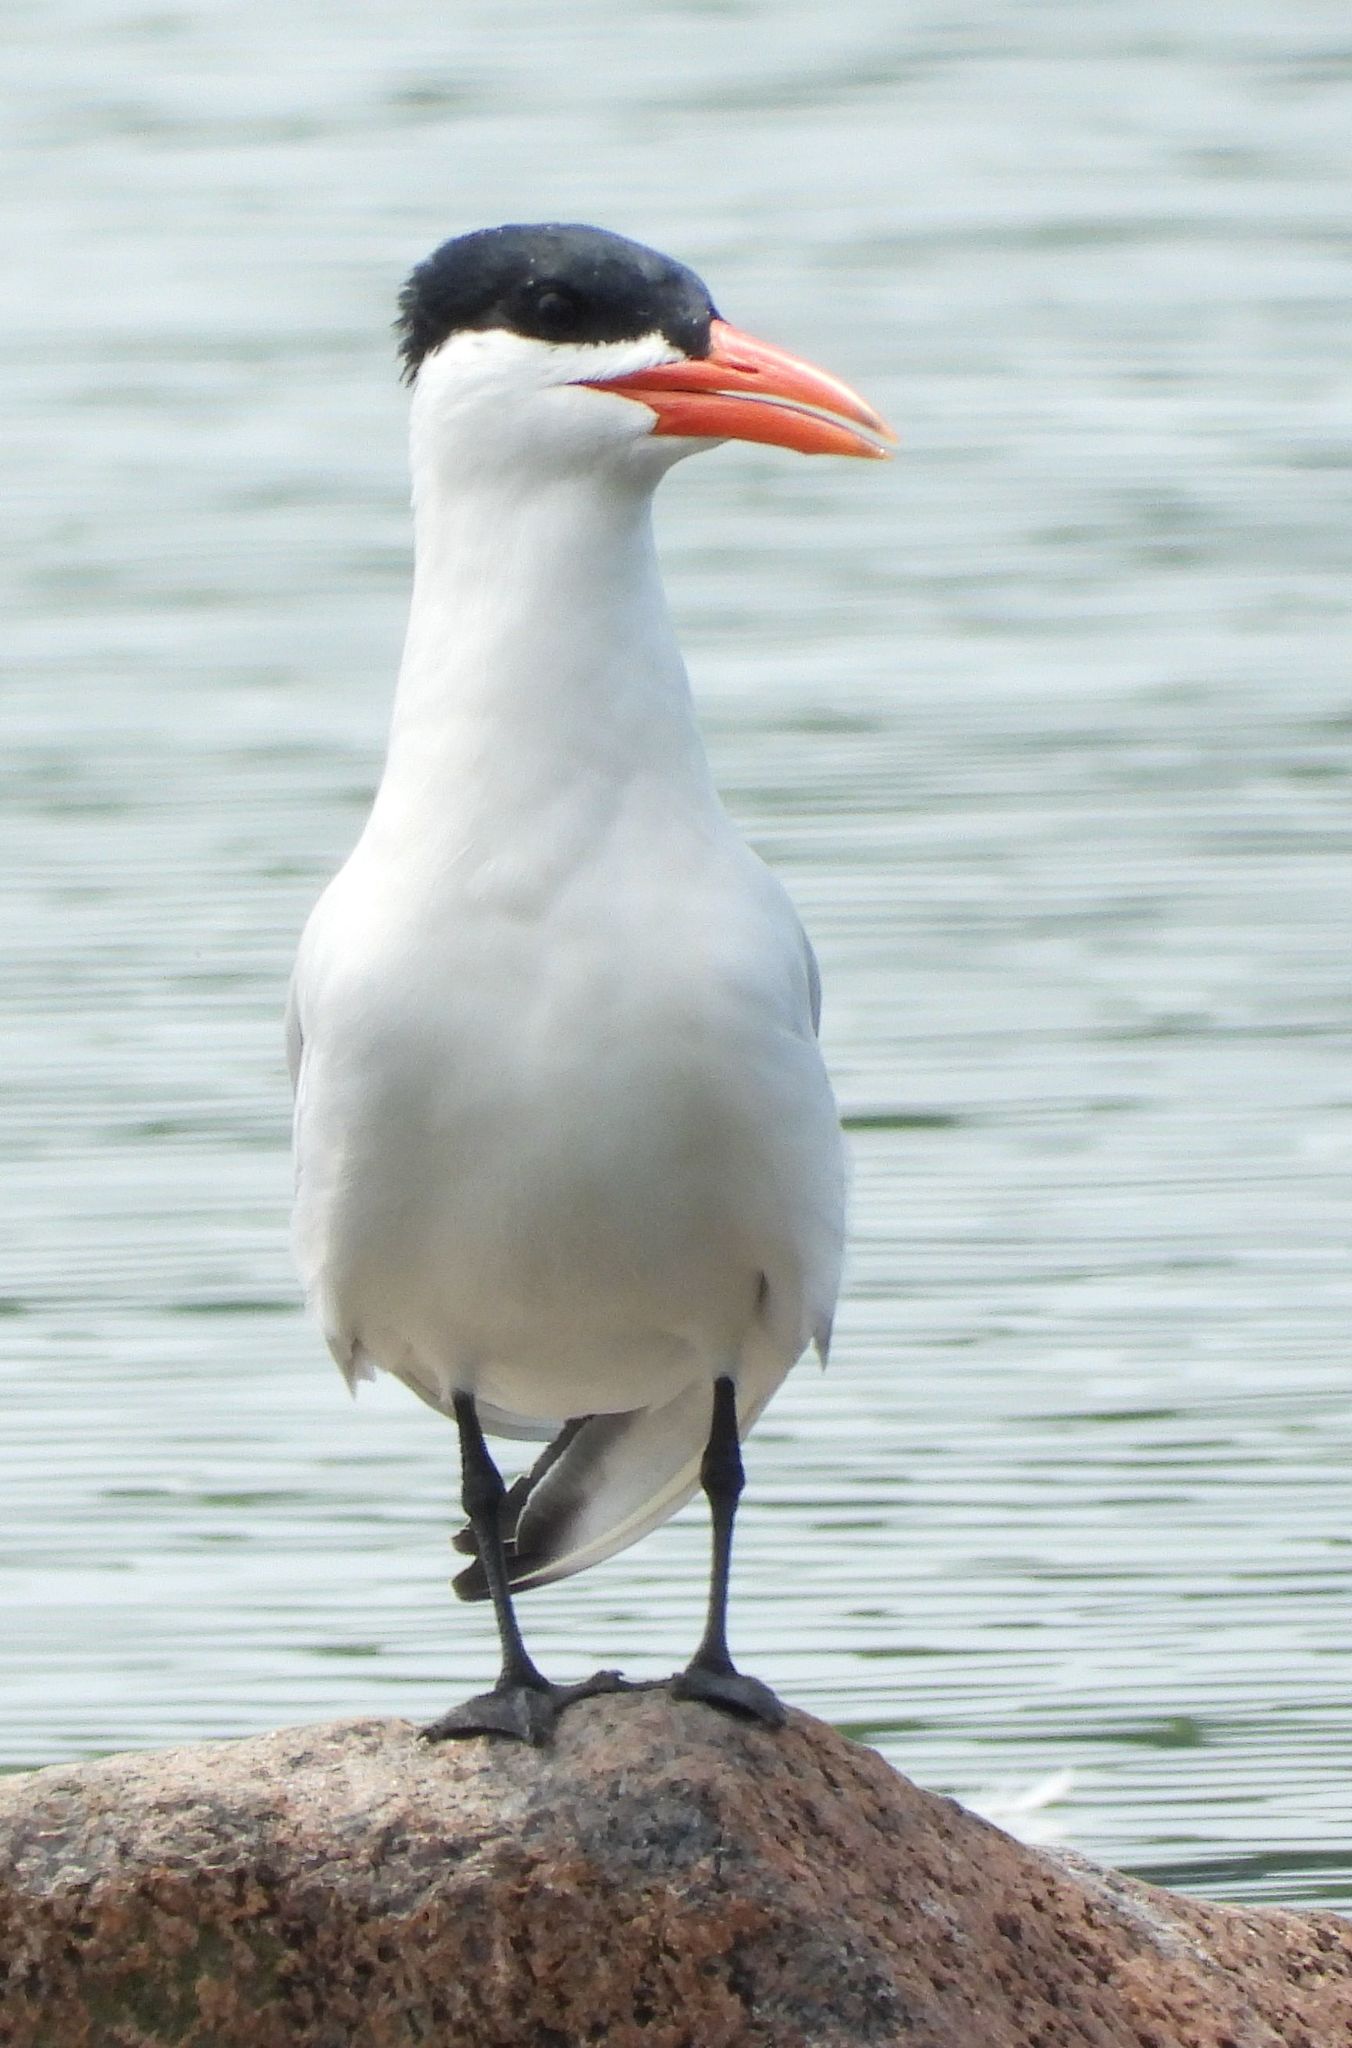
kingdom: Animalia
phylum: Chordata
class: Aves
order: Charadriiformes
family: Laridae
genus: Hydroprogne
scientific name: Hydroprogne caspia
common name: Caspian tern
